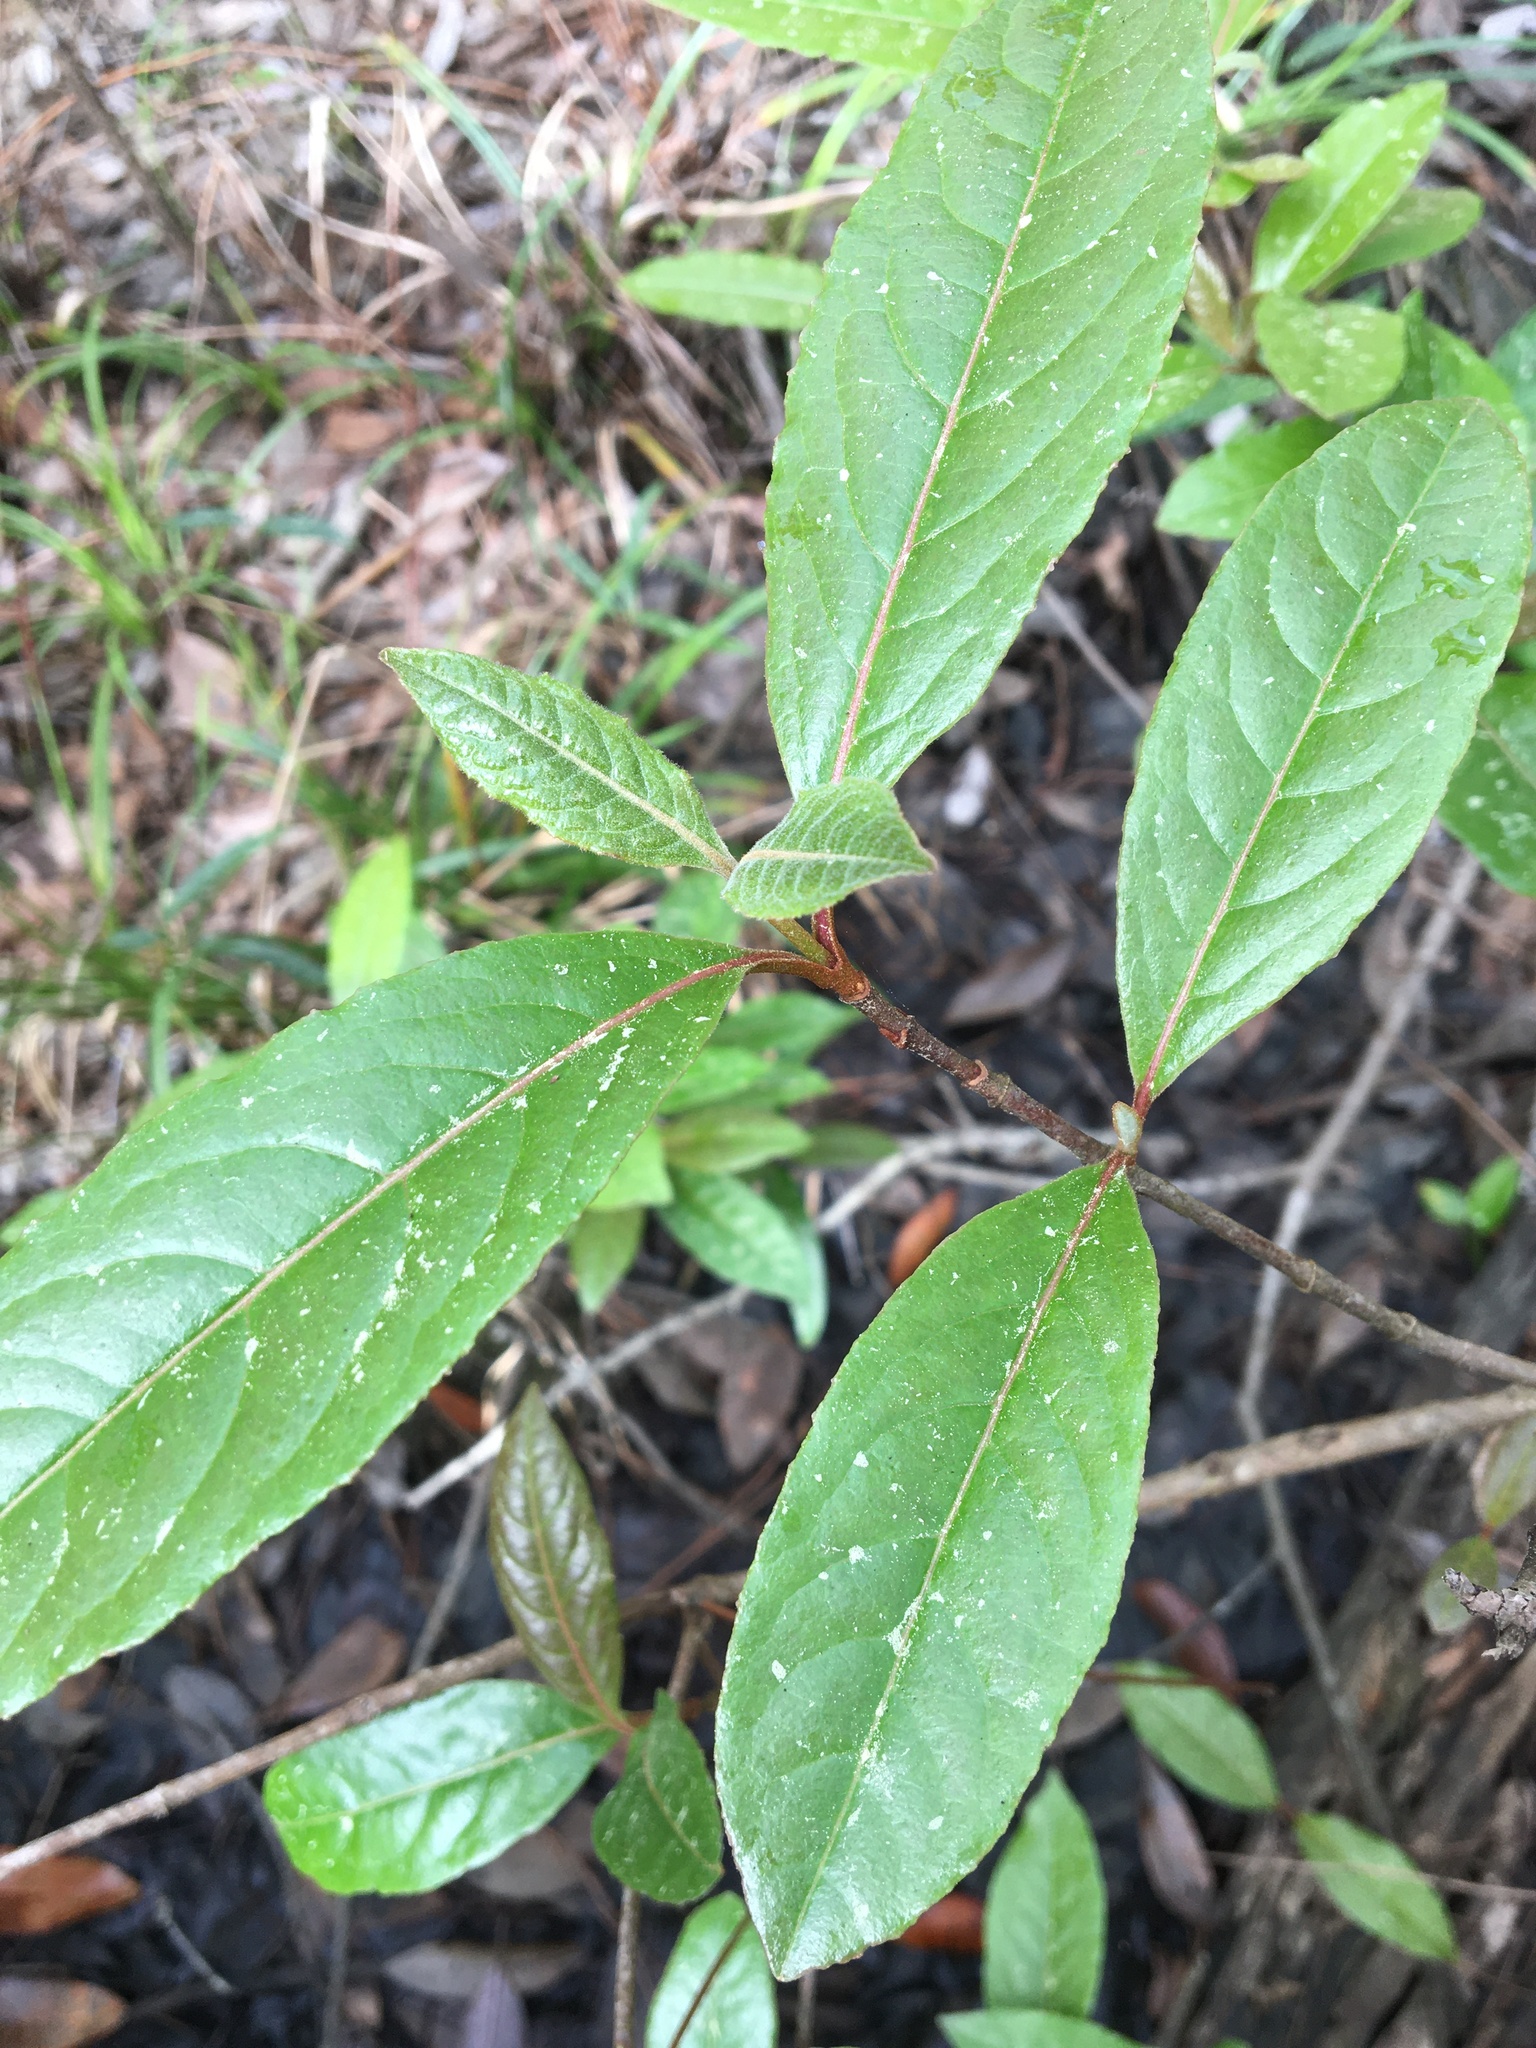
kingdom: Plantae
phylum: Tracheophyta
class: Magnoliopsida
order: Dipsacales
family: Viburnaceae
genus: Viburnum
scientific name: Viburnum nudum
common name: Possum haw
